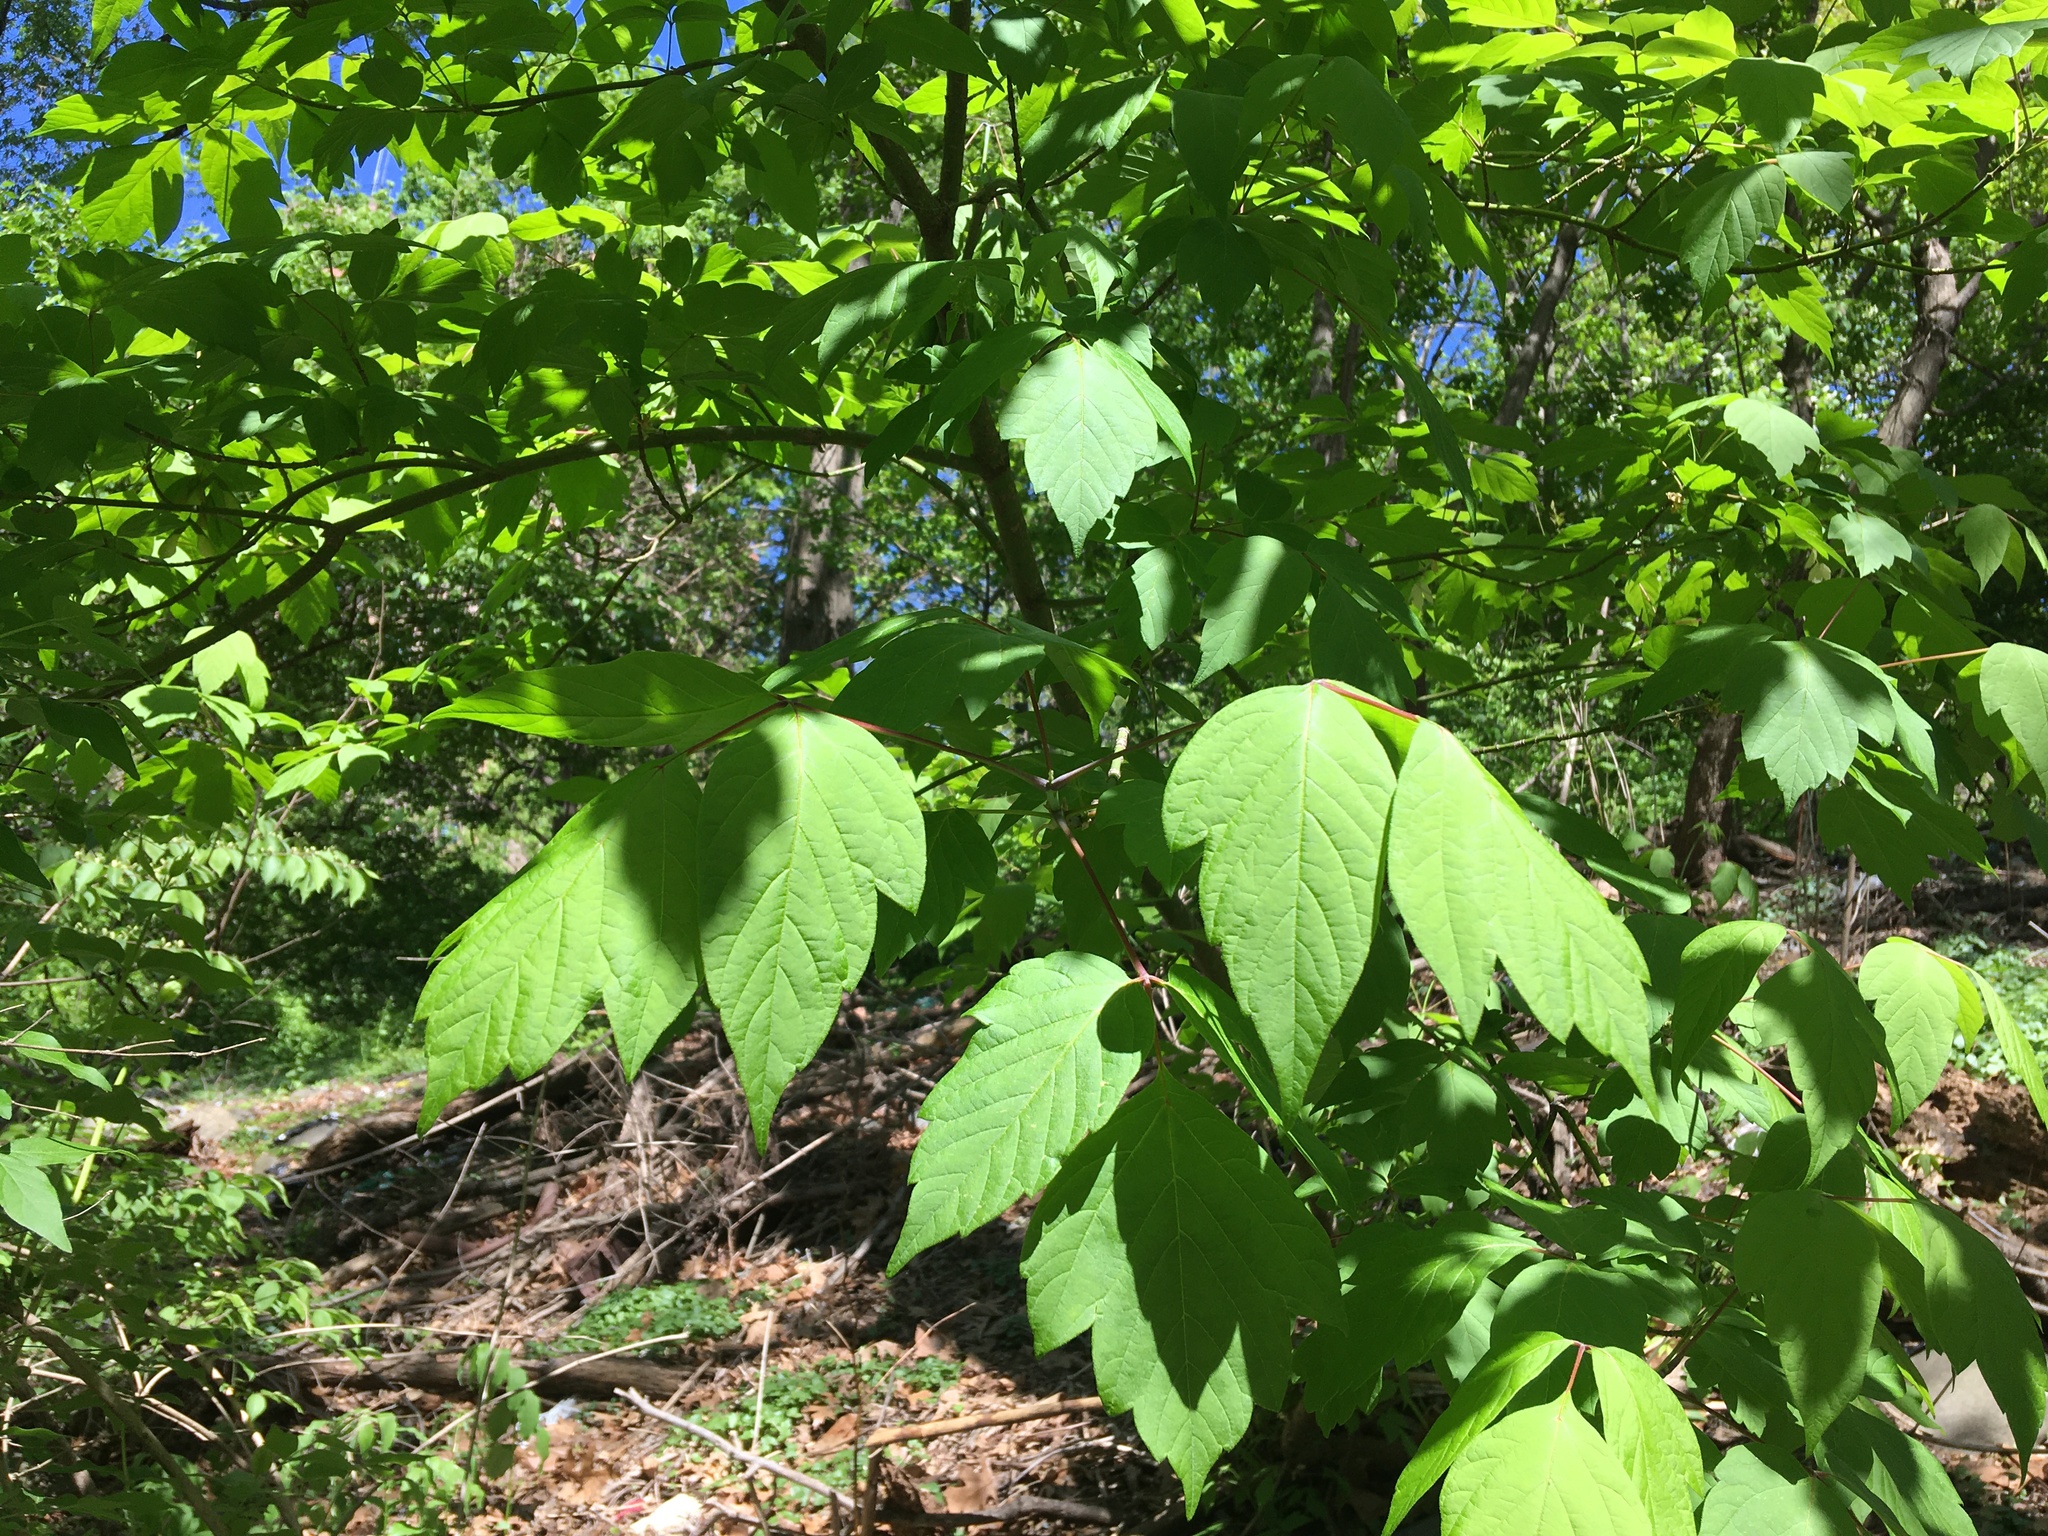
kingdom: Plantae
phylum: Tracheophyta
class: Magnoliopsida
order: Sapindales
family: Sapindaceae
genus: Acer
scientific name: Acer negundo
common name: Ashleaf maple
